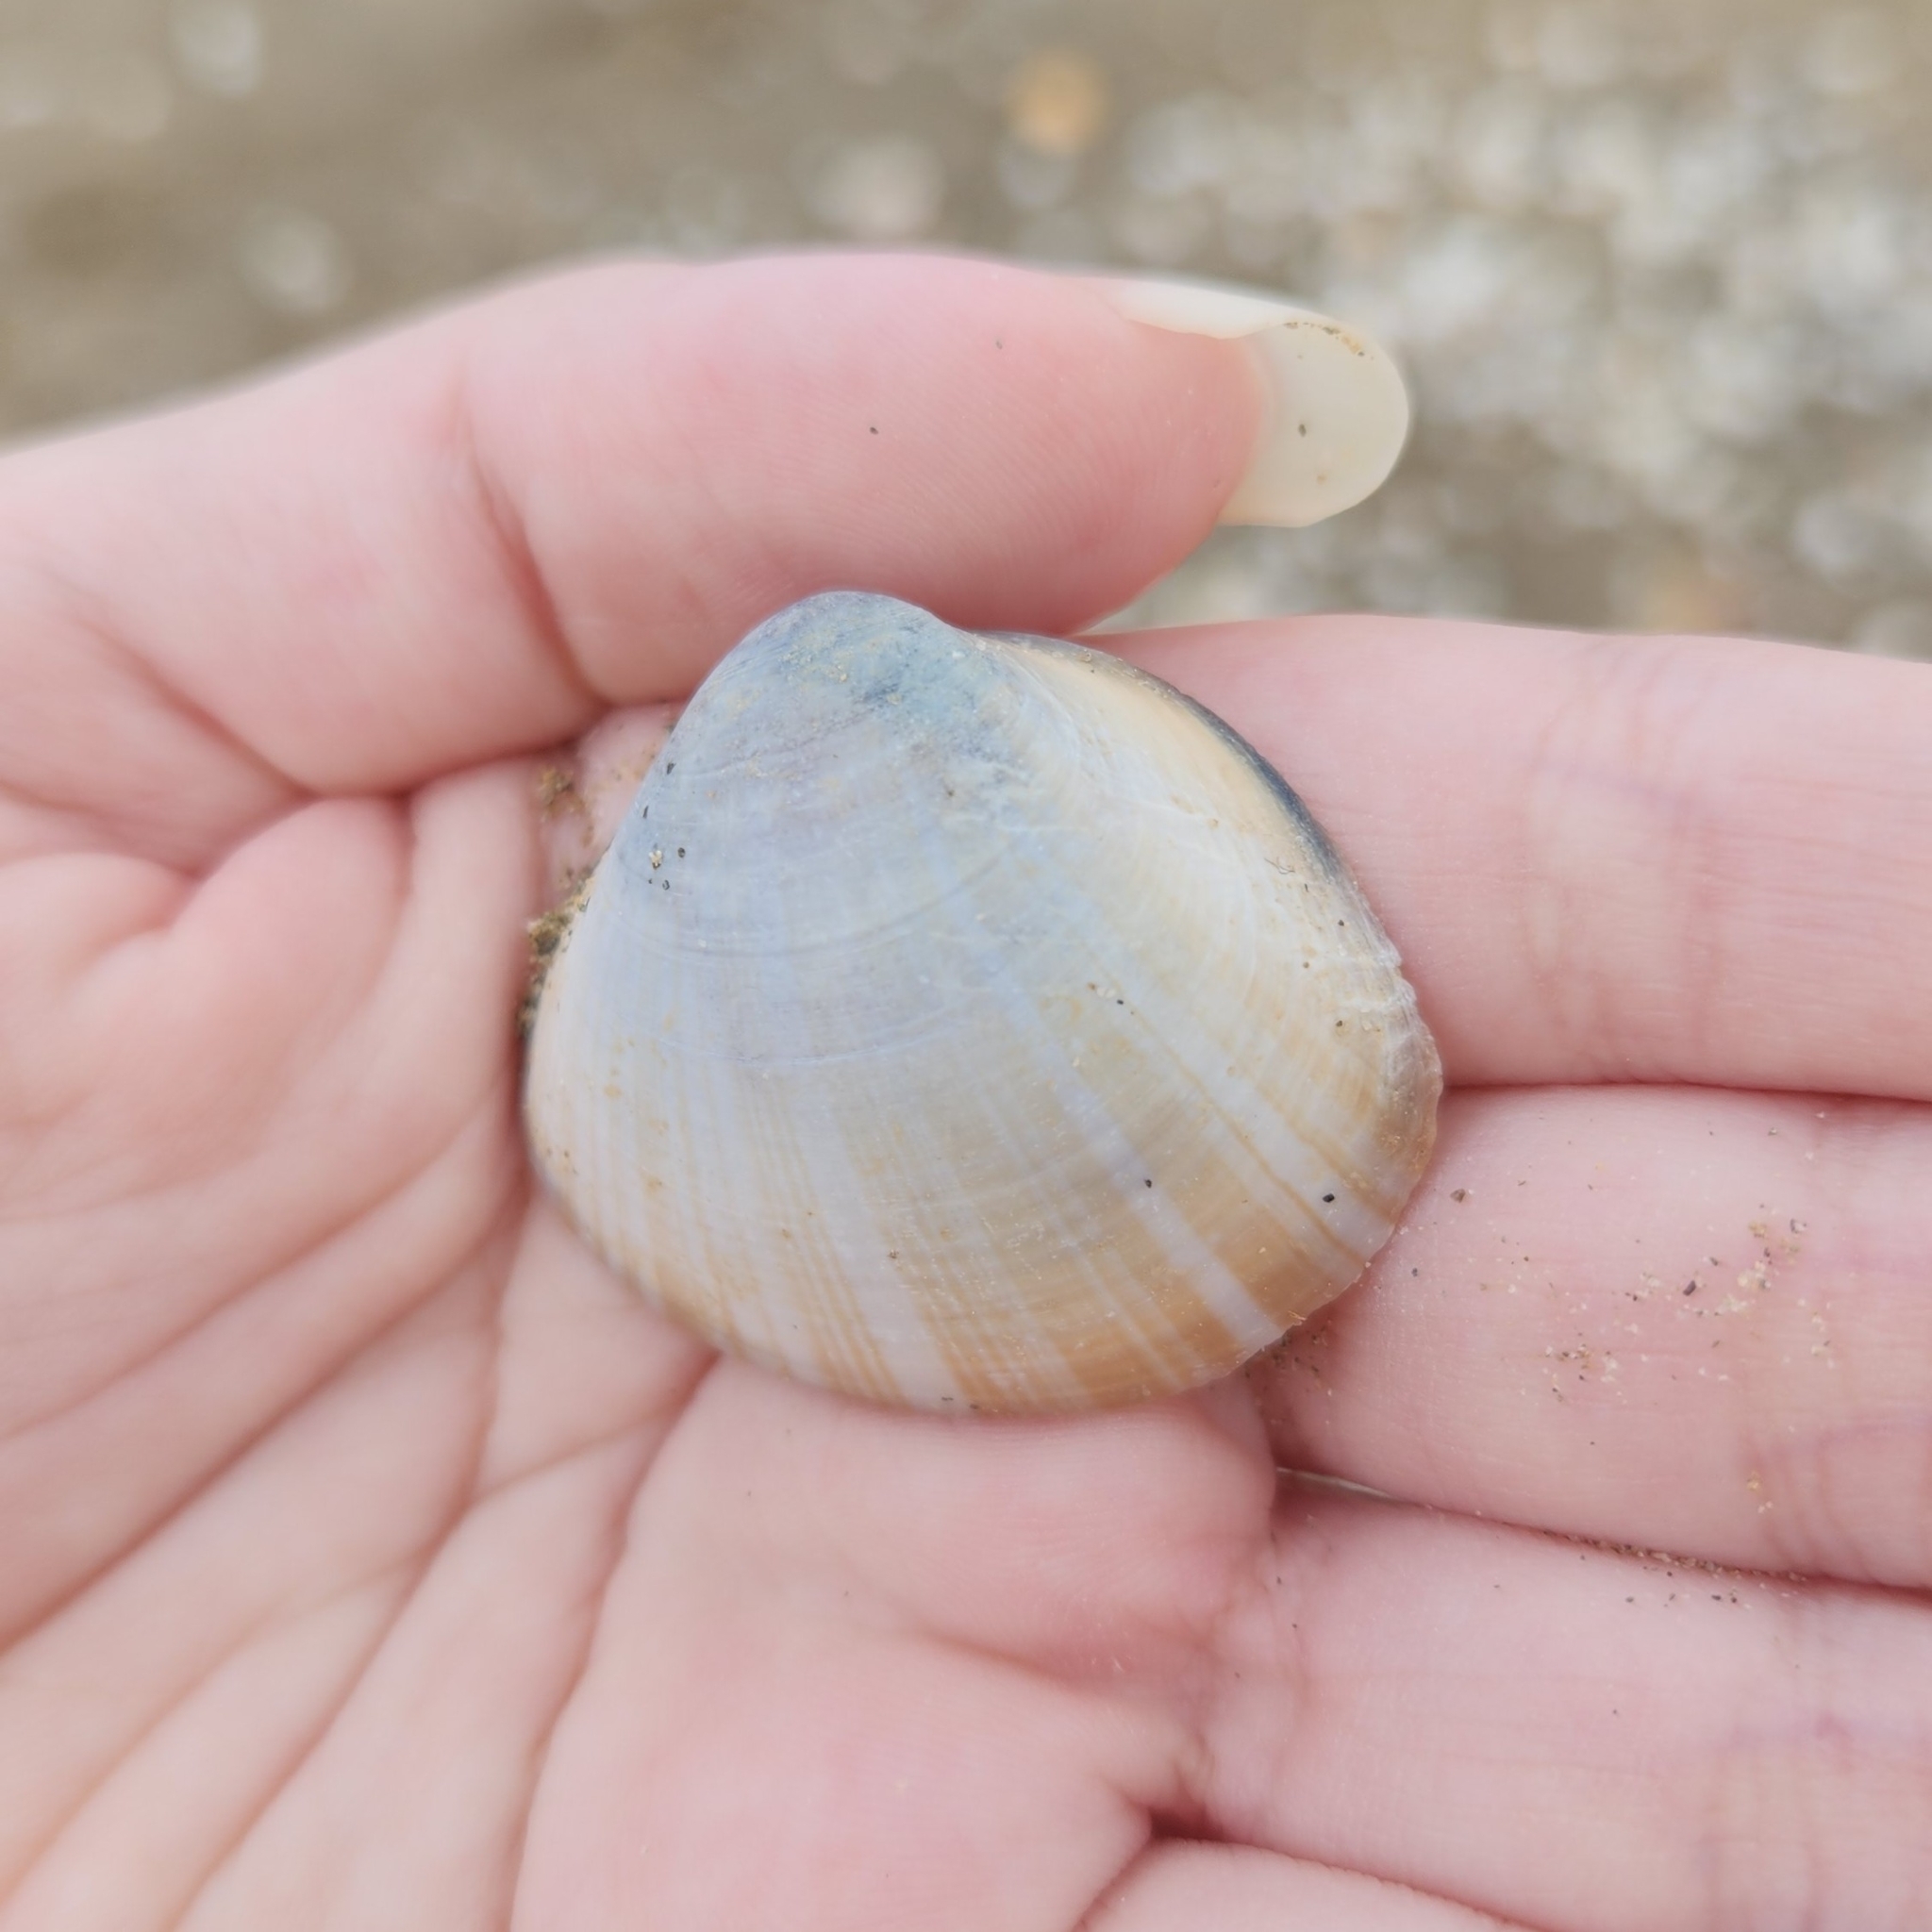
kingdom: Animalia
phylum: Mollusca
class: Bivalvia
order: Venerida
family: Mactridae
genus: Mactra
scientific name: Mactra stultorum
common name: Rayed trough shell
